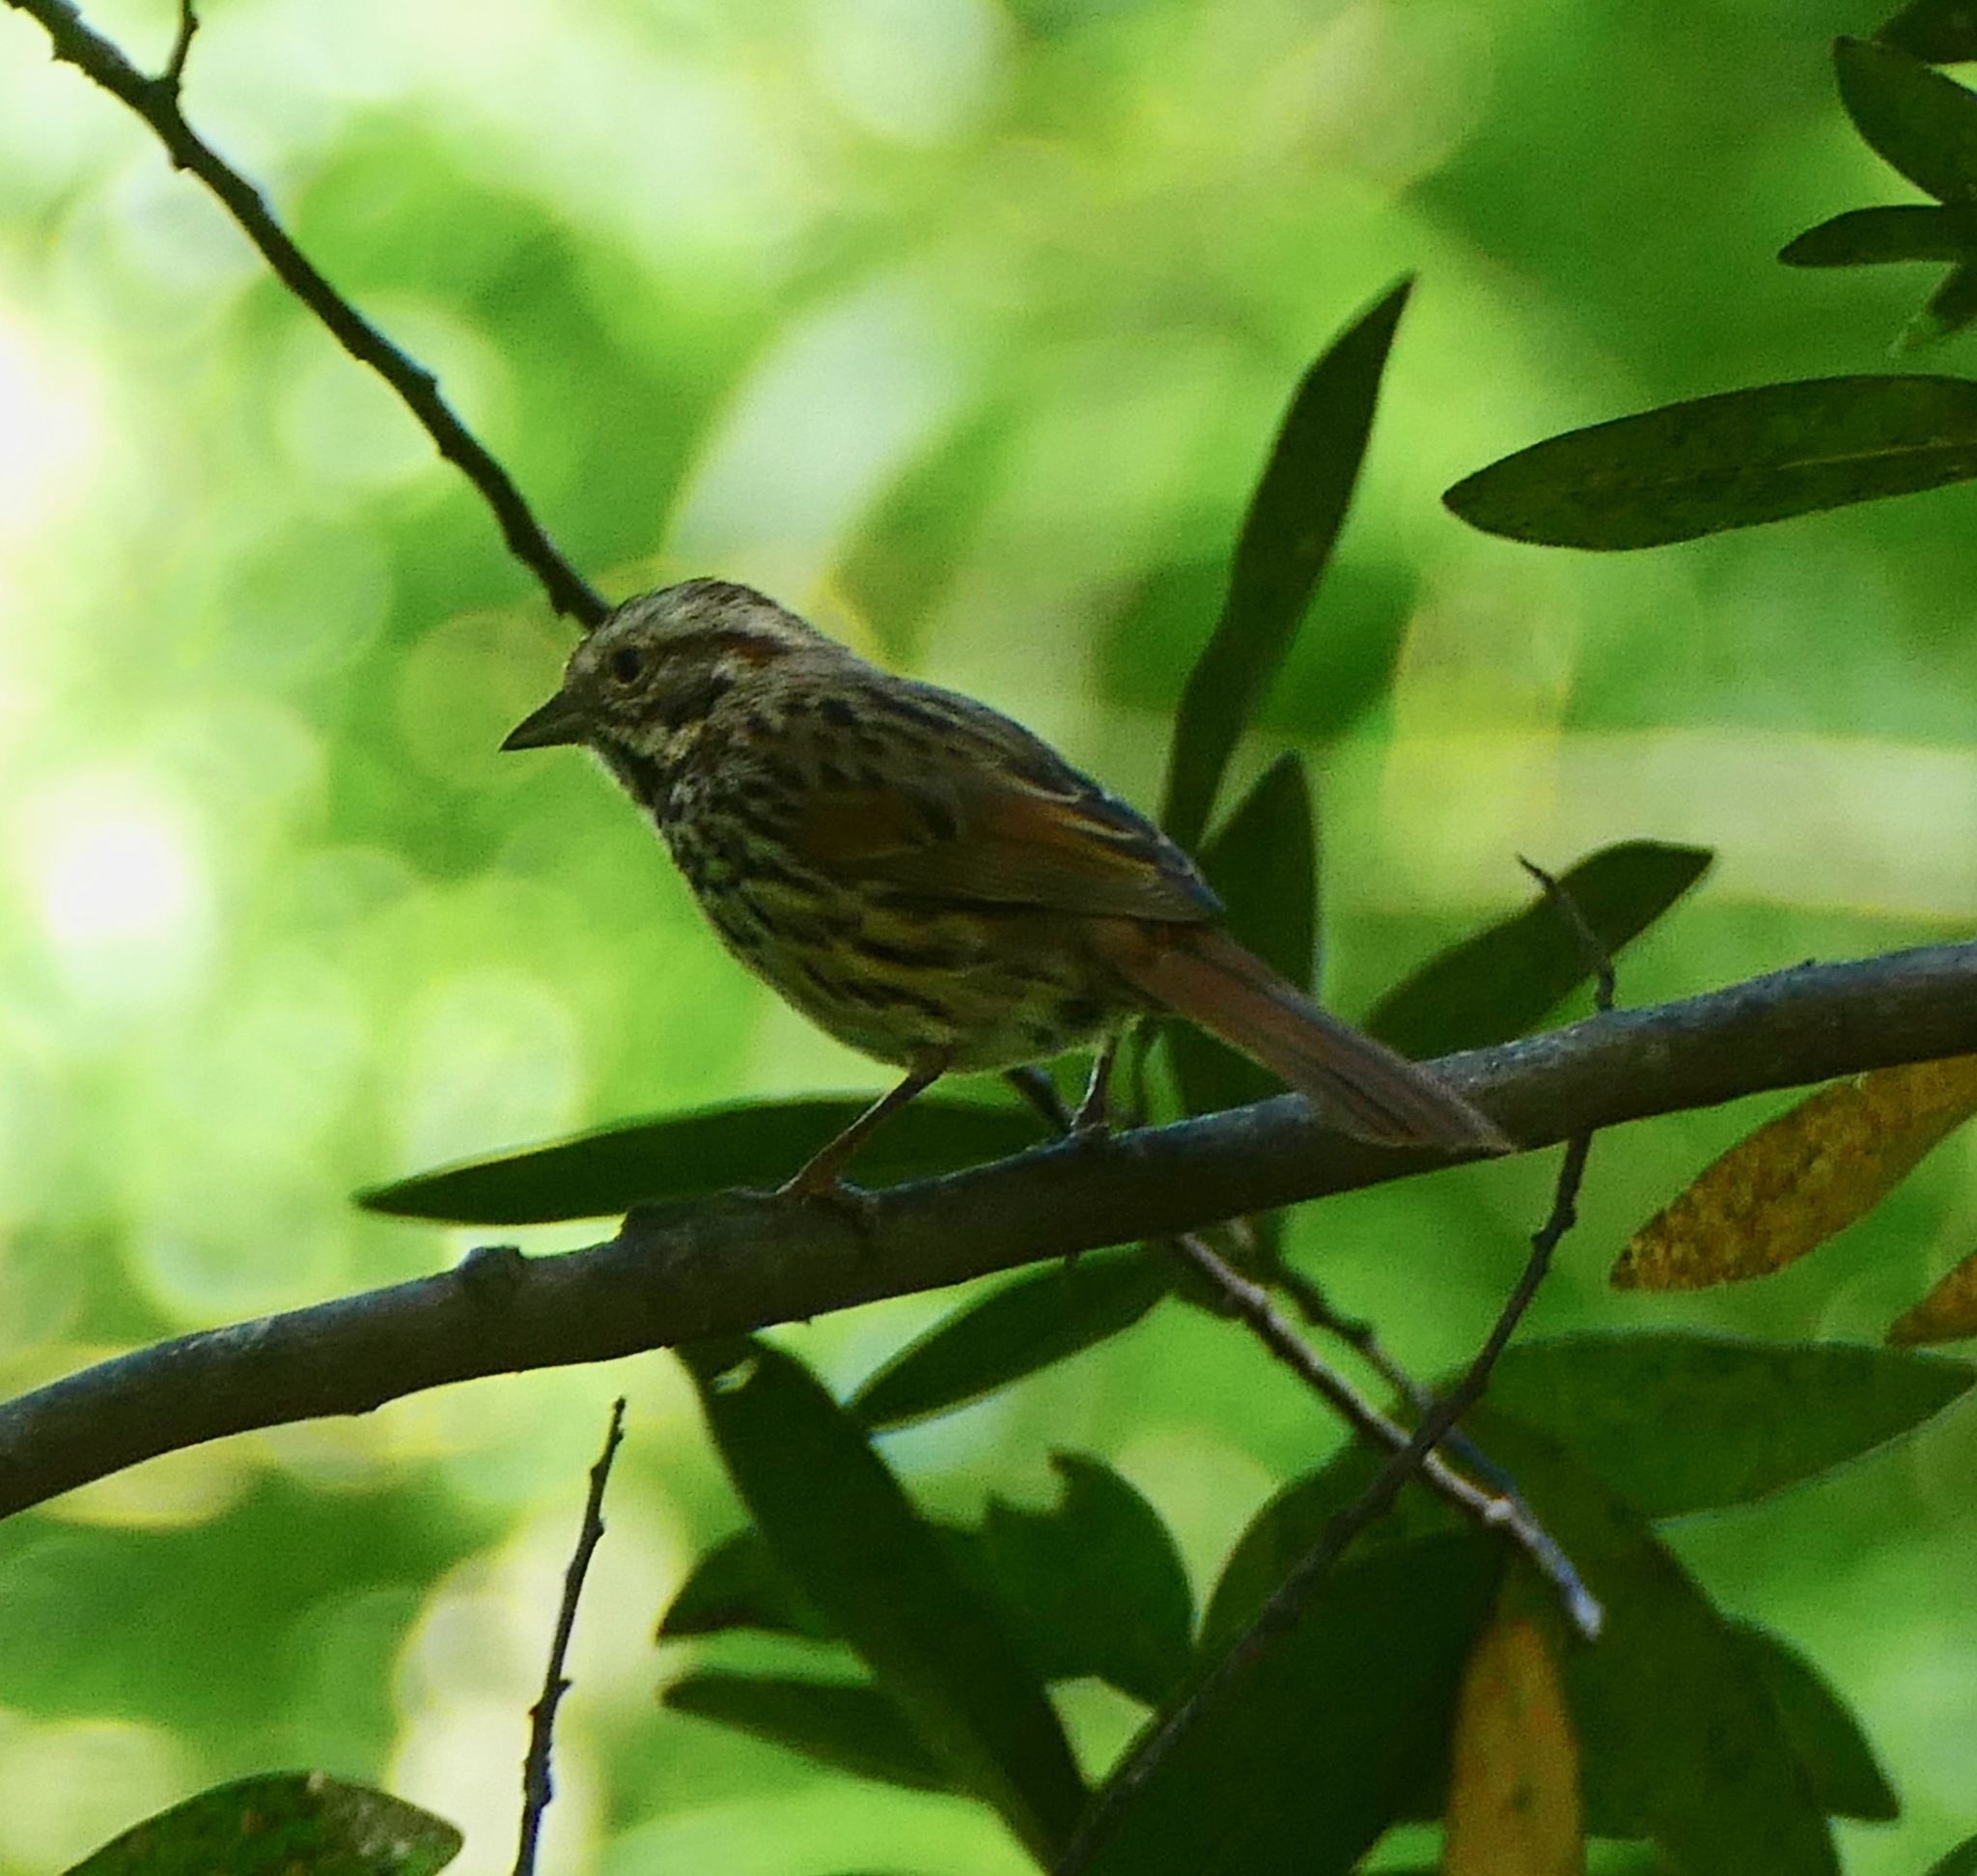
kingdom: Animalia
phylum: Chordata
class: Aves
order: Passeriformes
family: Passerellidae
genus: Melospiza
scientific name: Melospiza melodia
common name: Song sparrow
